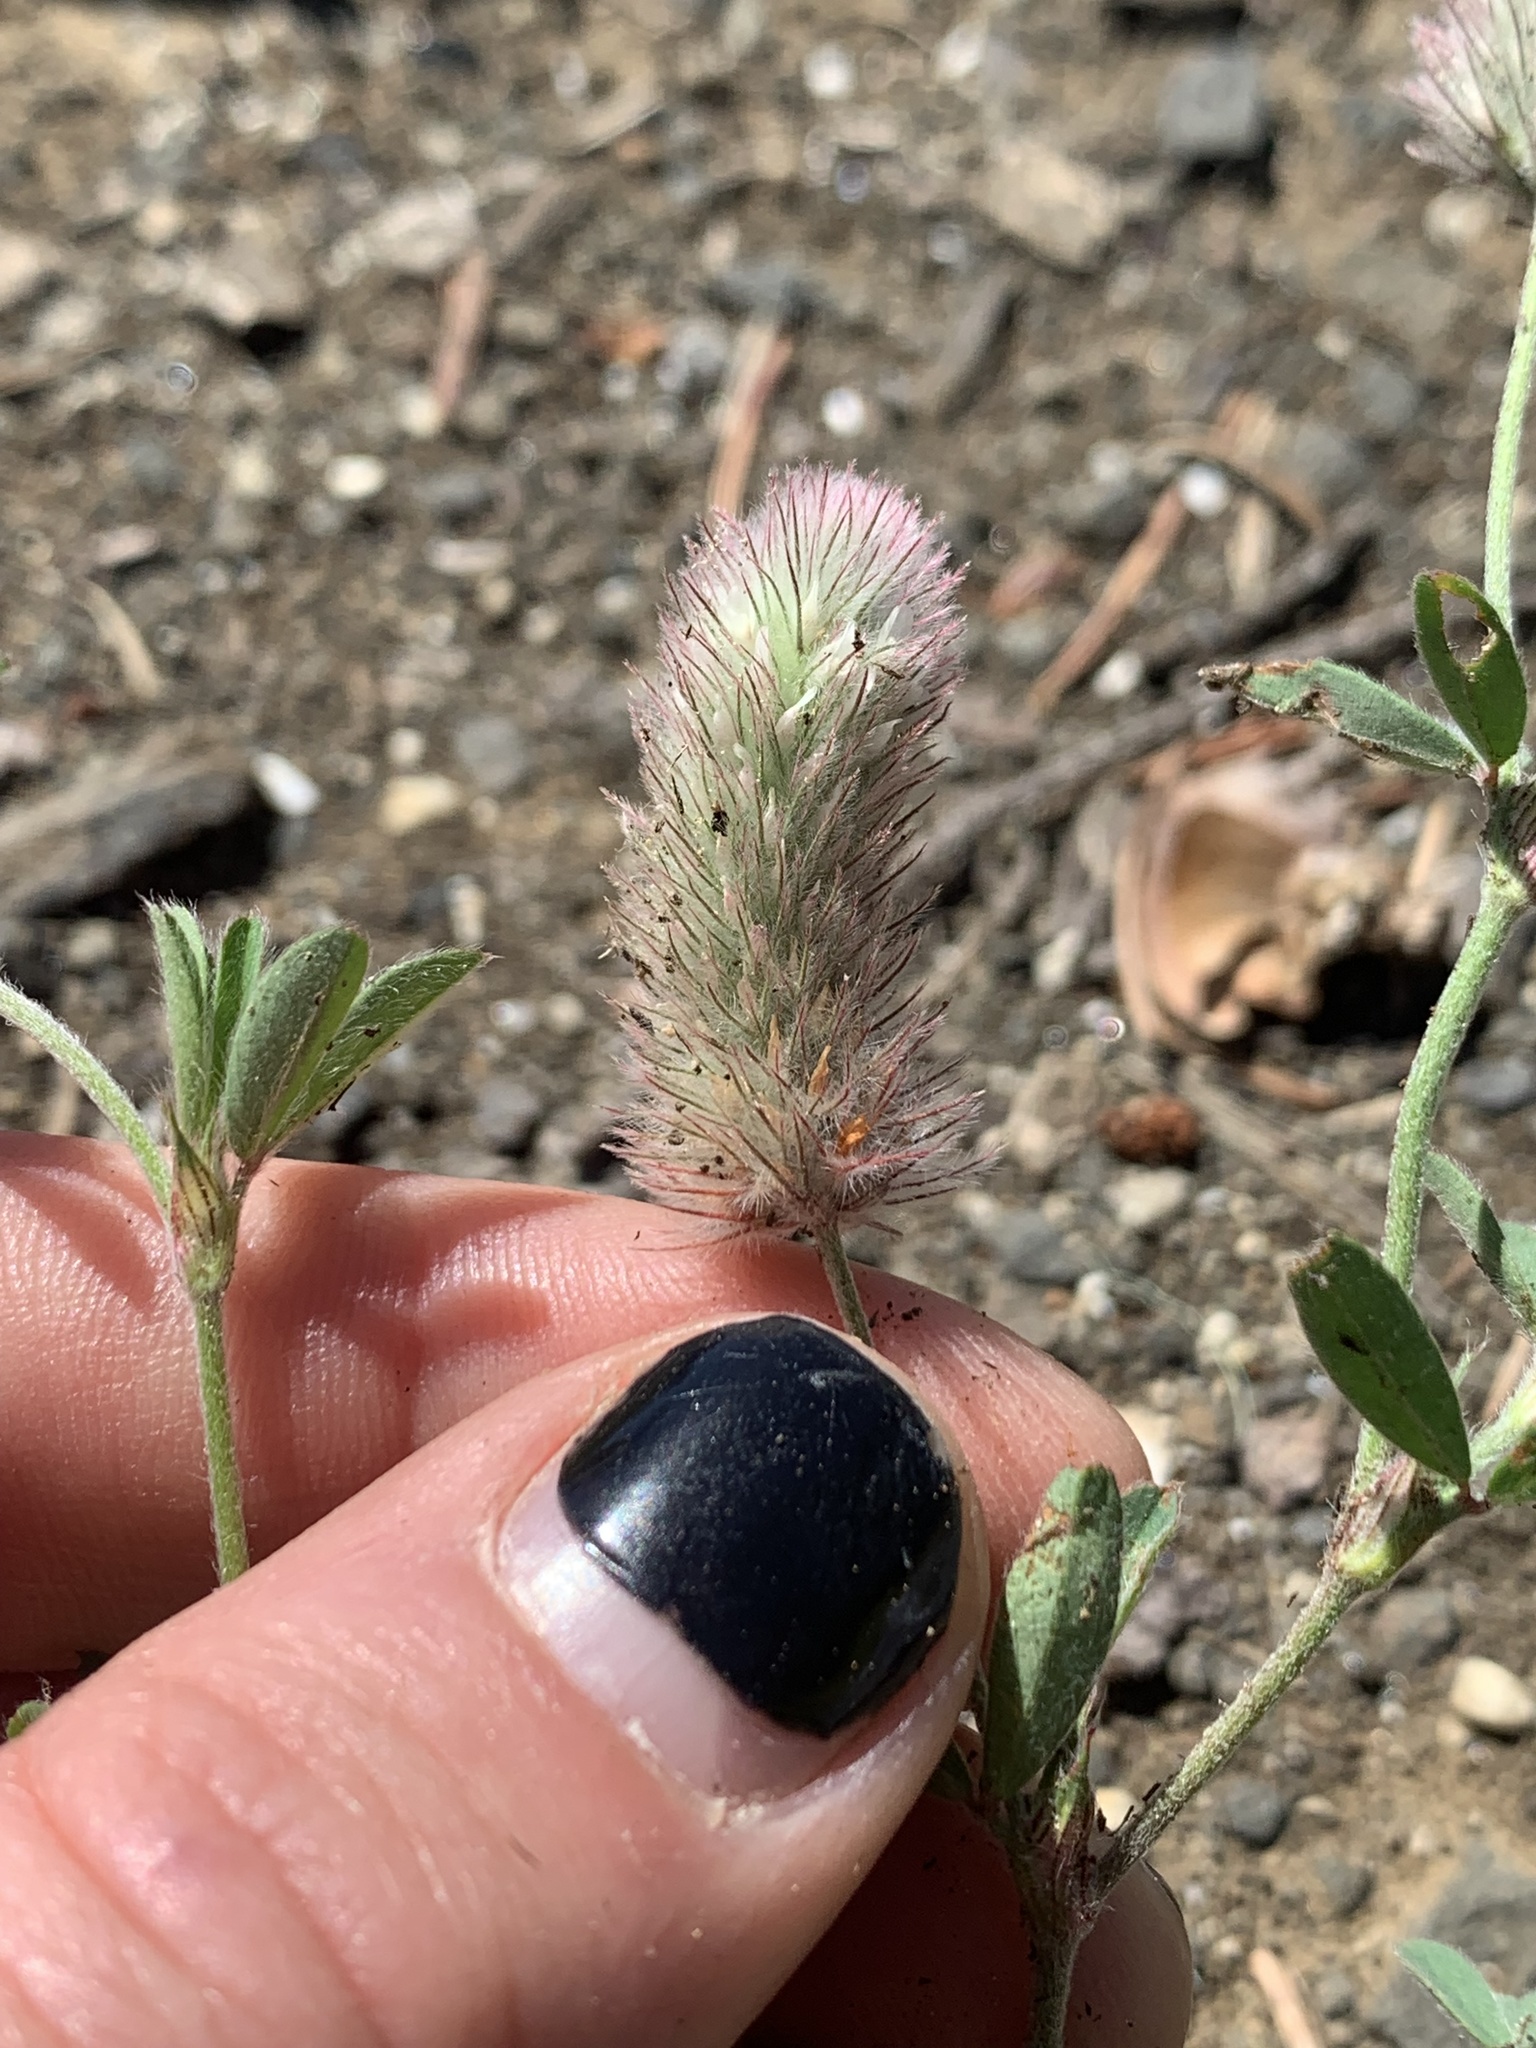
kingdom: Plantae
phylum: Tracheophyta
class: Magnoliopsida
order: Fabales
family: Fabaceae
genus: Trifolium
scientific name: Trifolium arvense
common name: Hare's-foot clover
